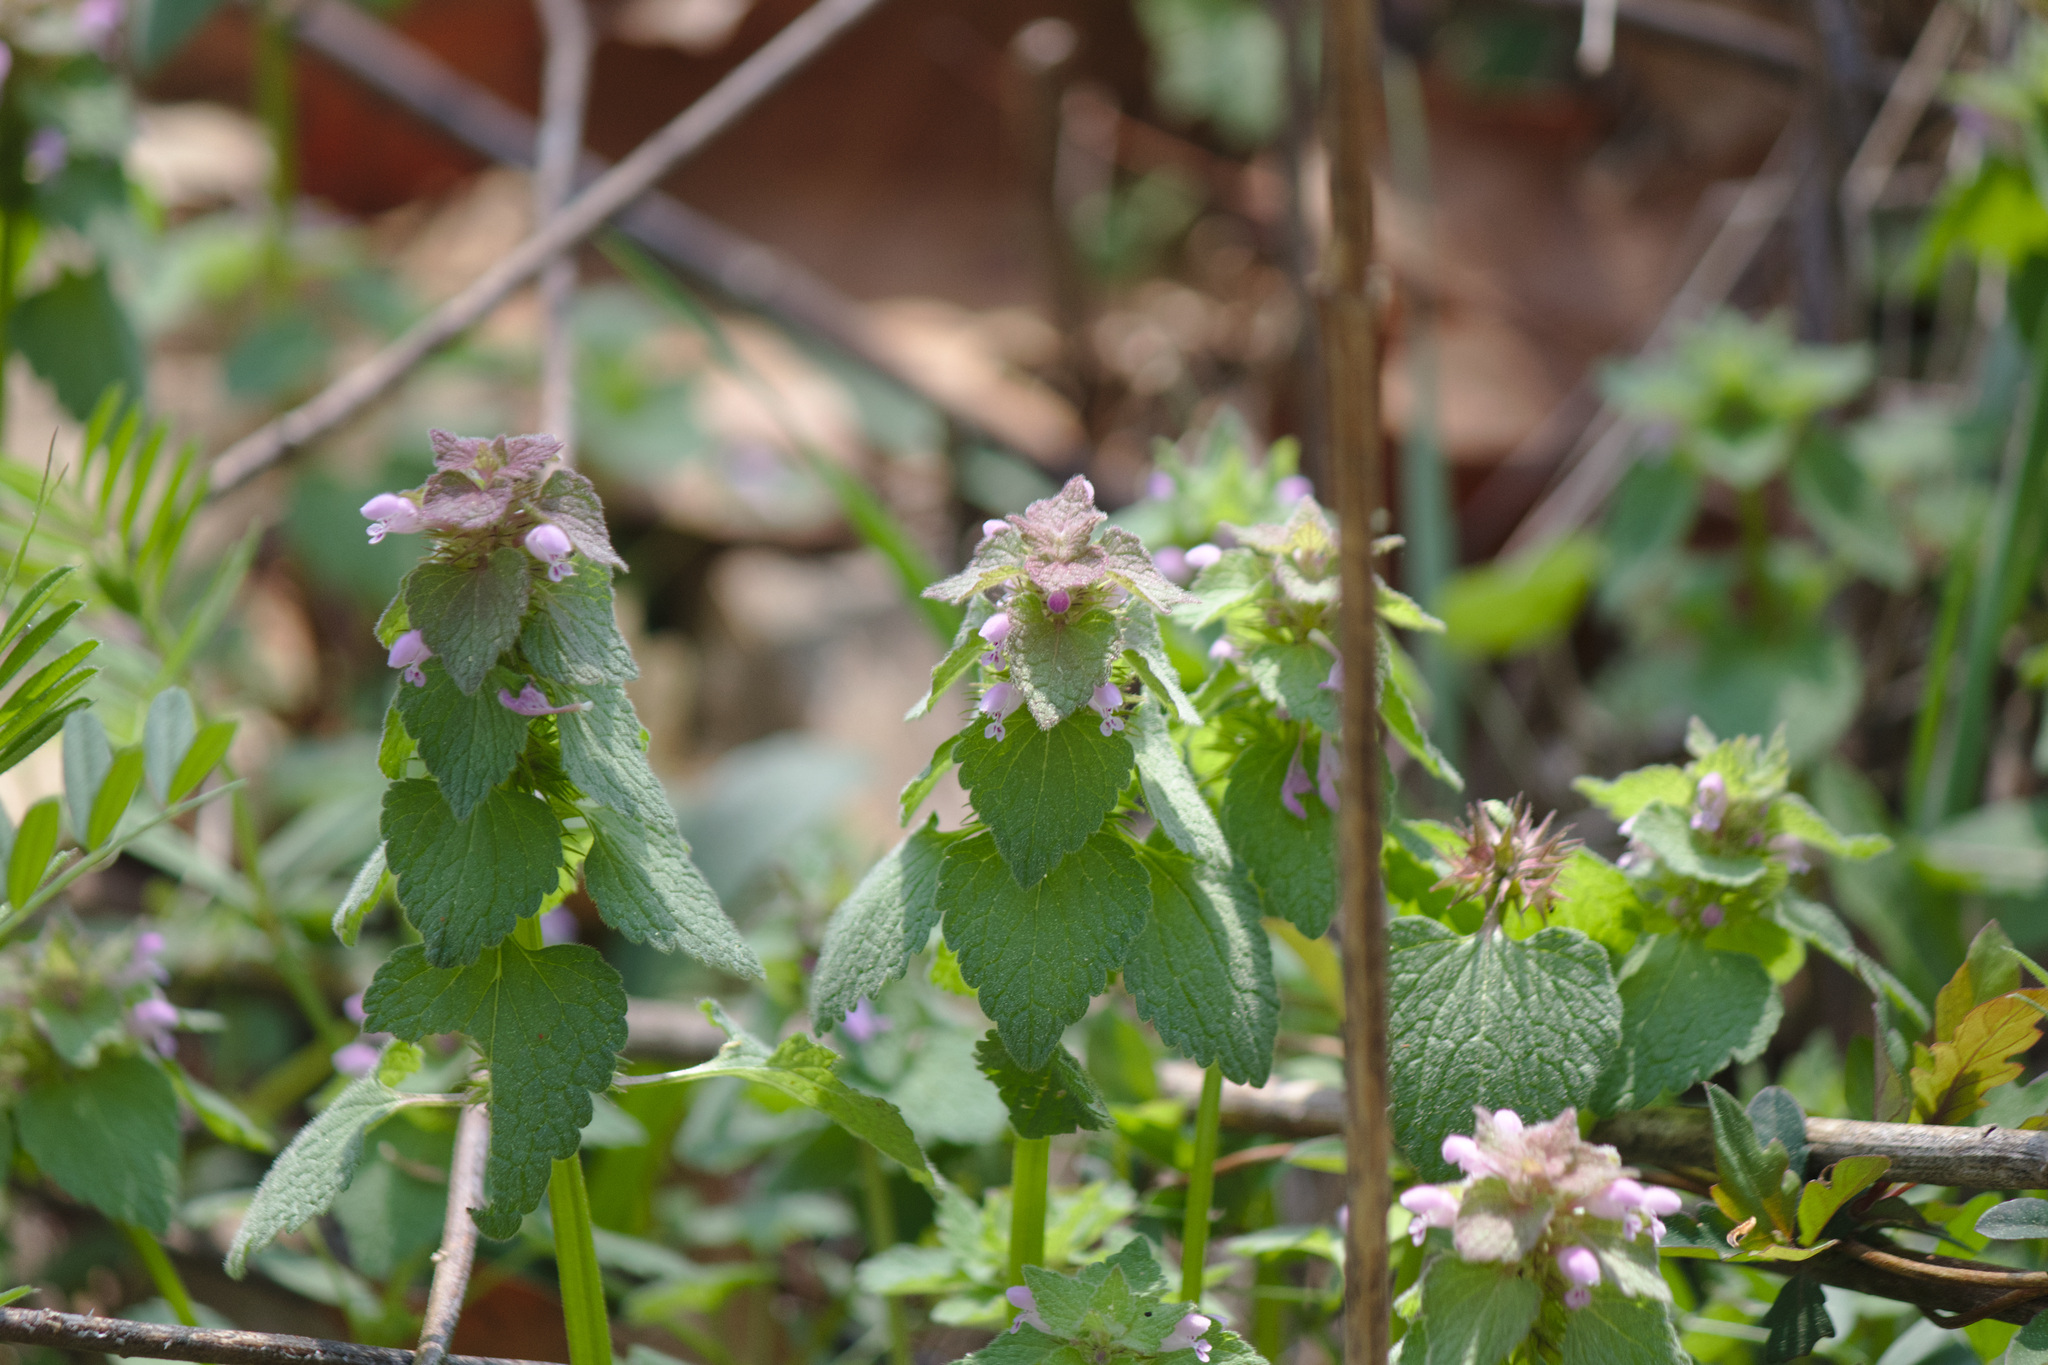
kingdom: Plantae
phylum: Tracheophyta
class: Magnoliopsida
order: Lamiales
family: Lamiaceae
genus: Lamium
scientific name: Lamium purpureum
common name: Red dead-nettle
